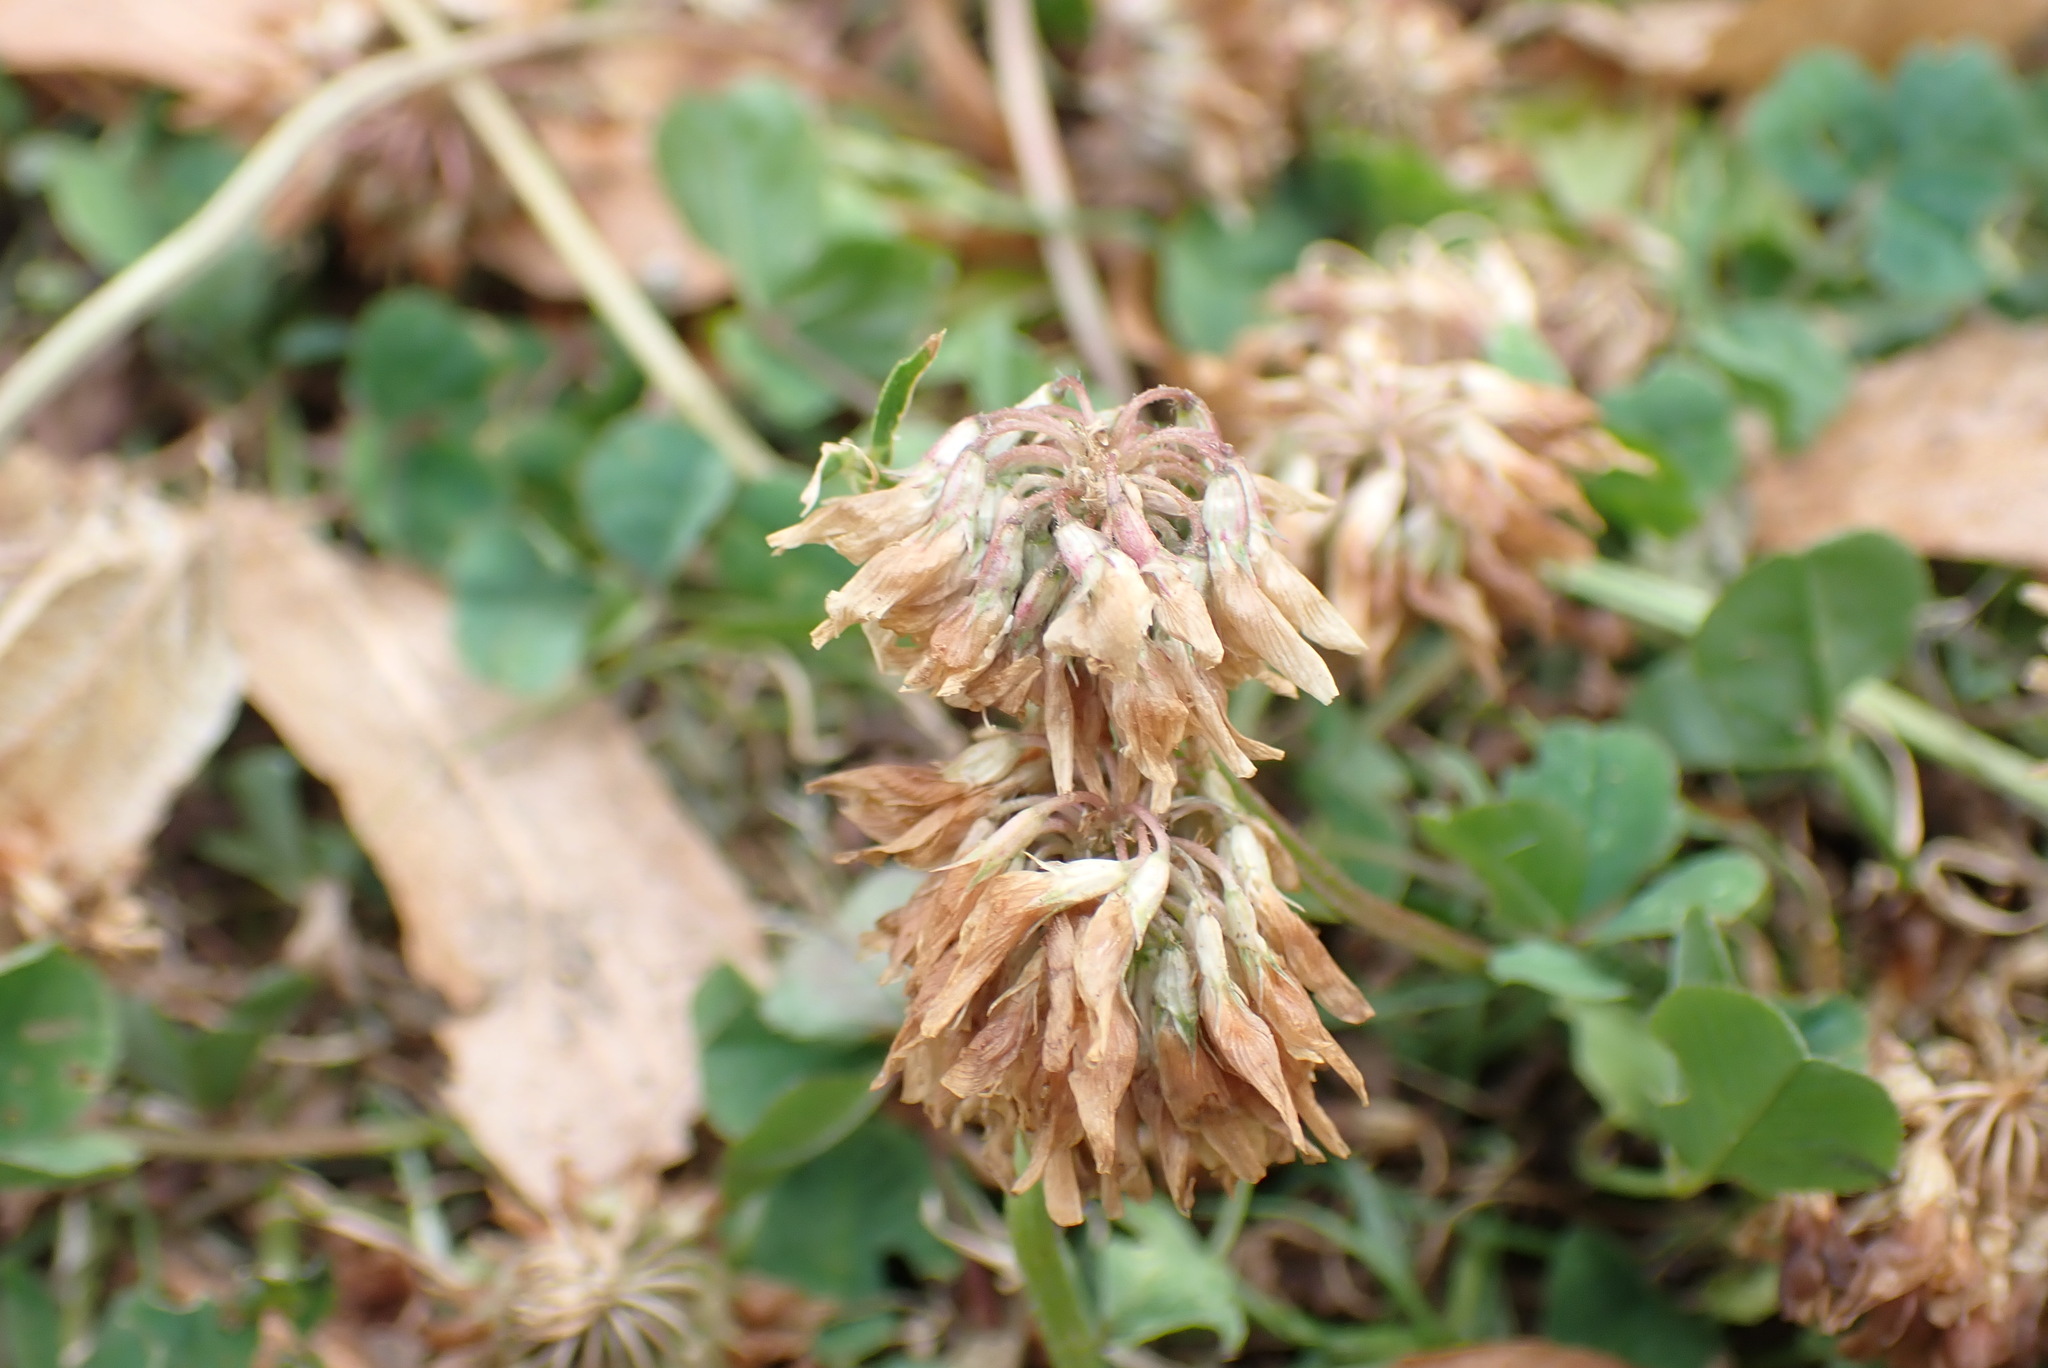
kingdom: Plantae
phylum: Tracheophyta
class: Magnoliopsida
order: Fabales
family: Fabaceae
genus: Trifolium
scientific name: Trifolium repens
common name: White clover
